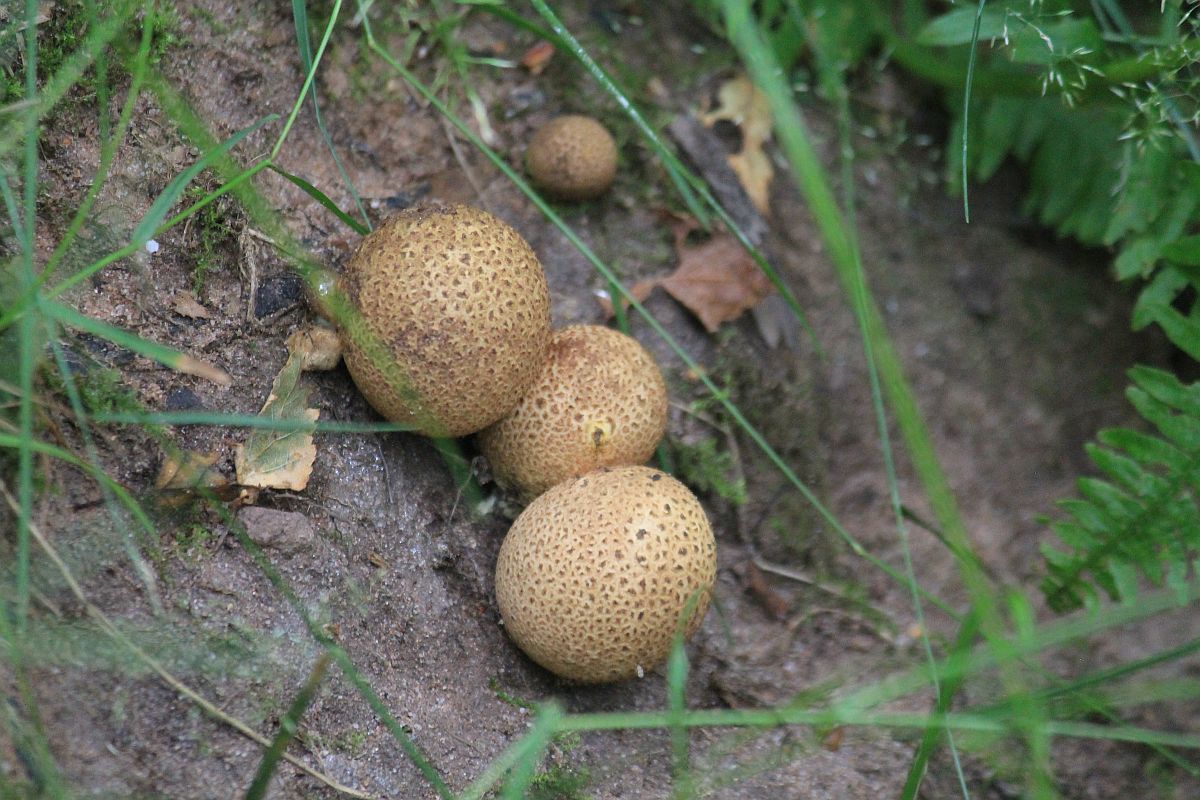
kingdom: Fungi
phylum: Basidiomycota
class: Agaricomycetes
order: Boletales
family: Sclerodermataceae
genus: Scleroderma
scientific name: Scleroderma citrinum
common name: Common earthball
